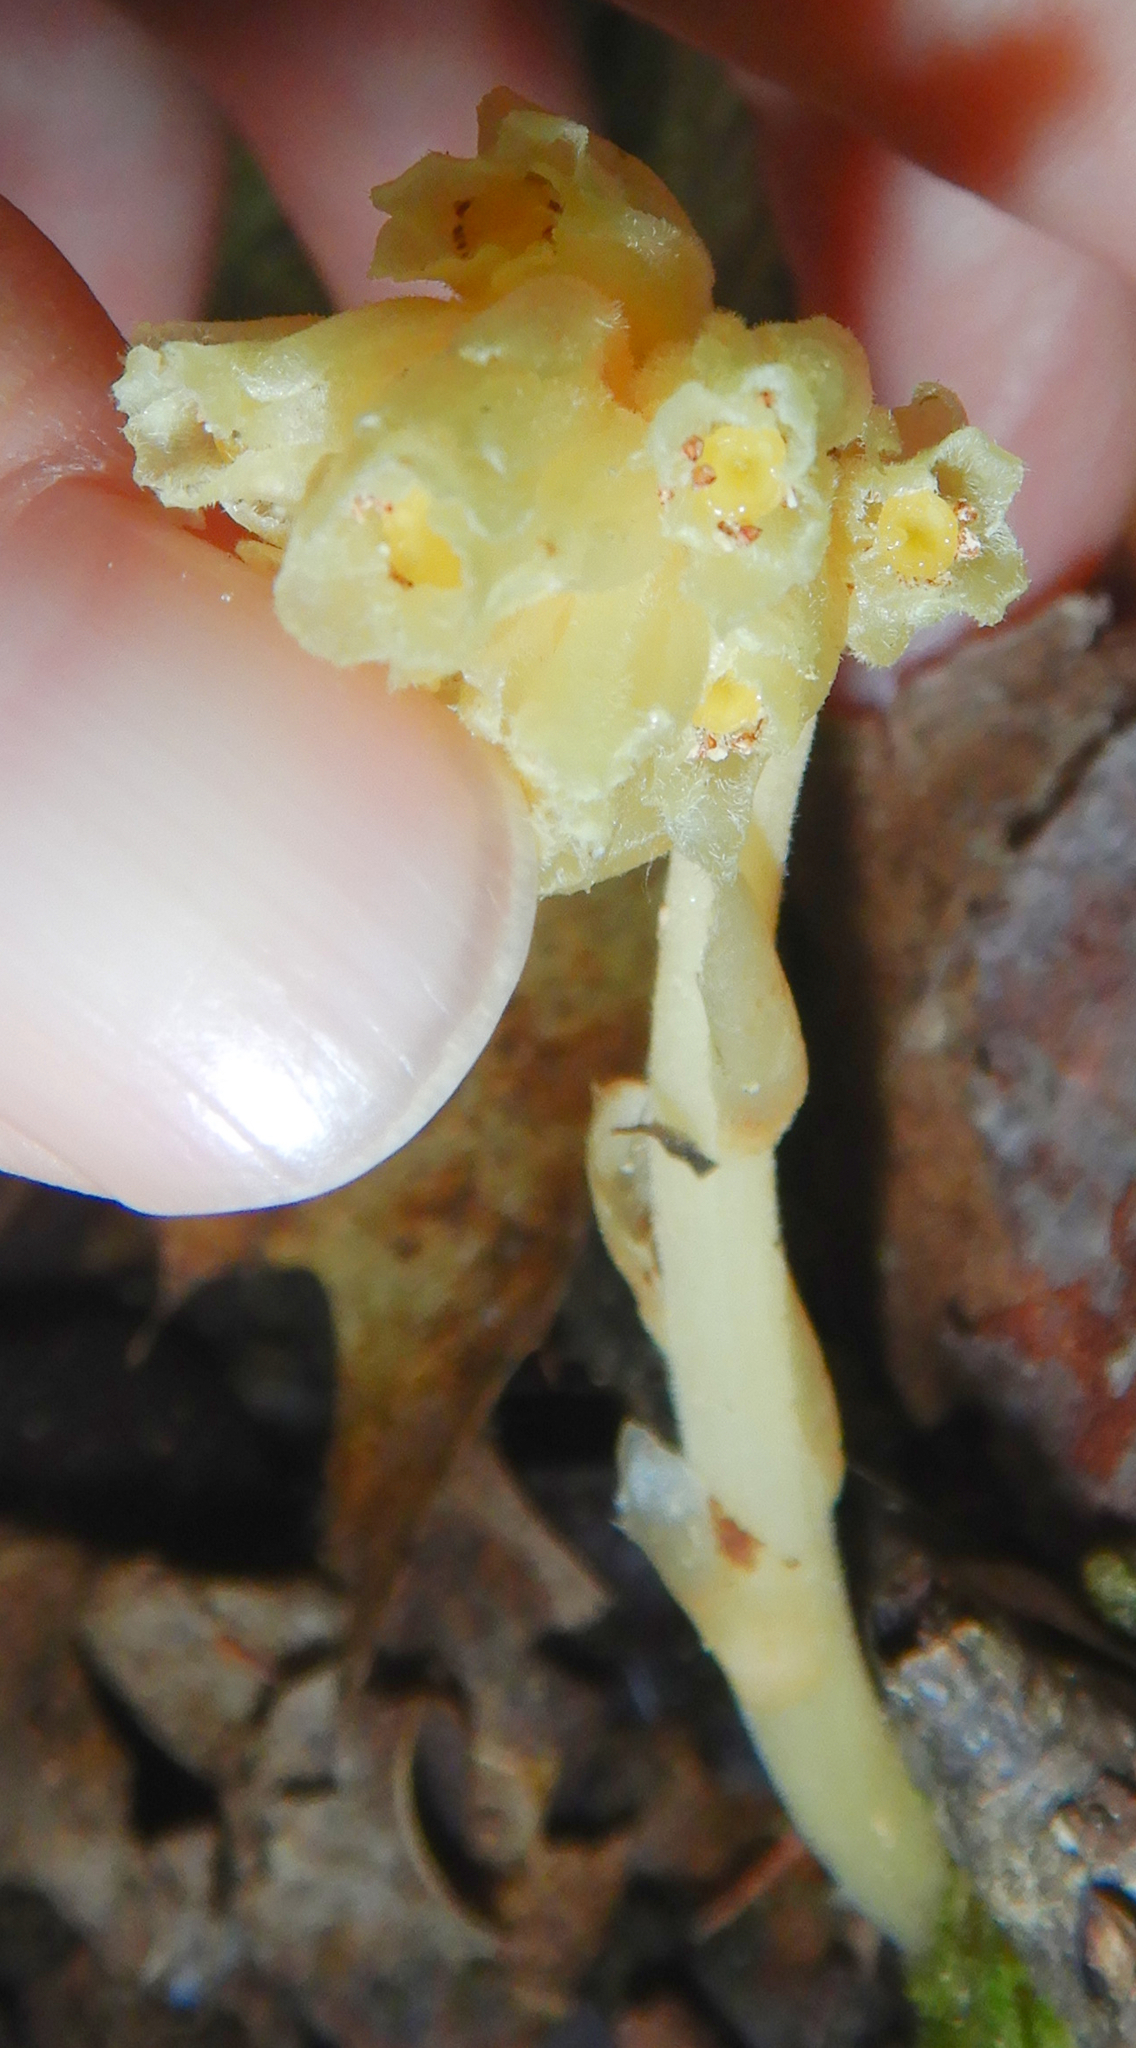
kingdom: Plantae
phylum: Tracheophyta
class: Magnoliopsida
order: Ericales
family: Ericaceae
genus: Hypopitys
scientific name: Hypopitys monotropa
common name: Yellow bird's-nest
